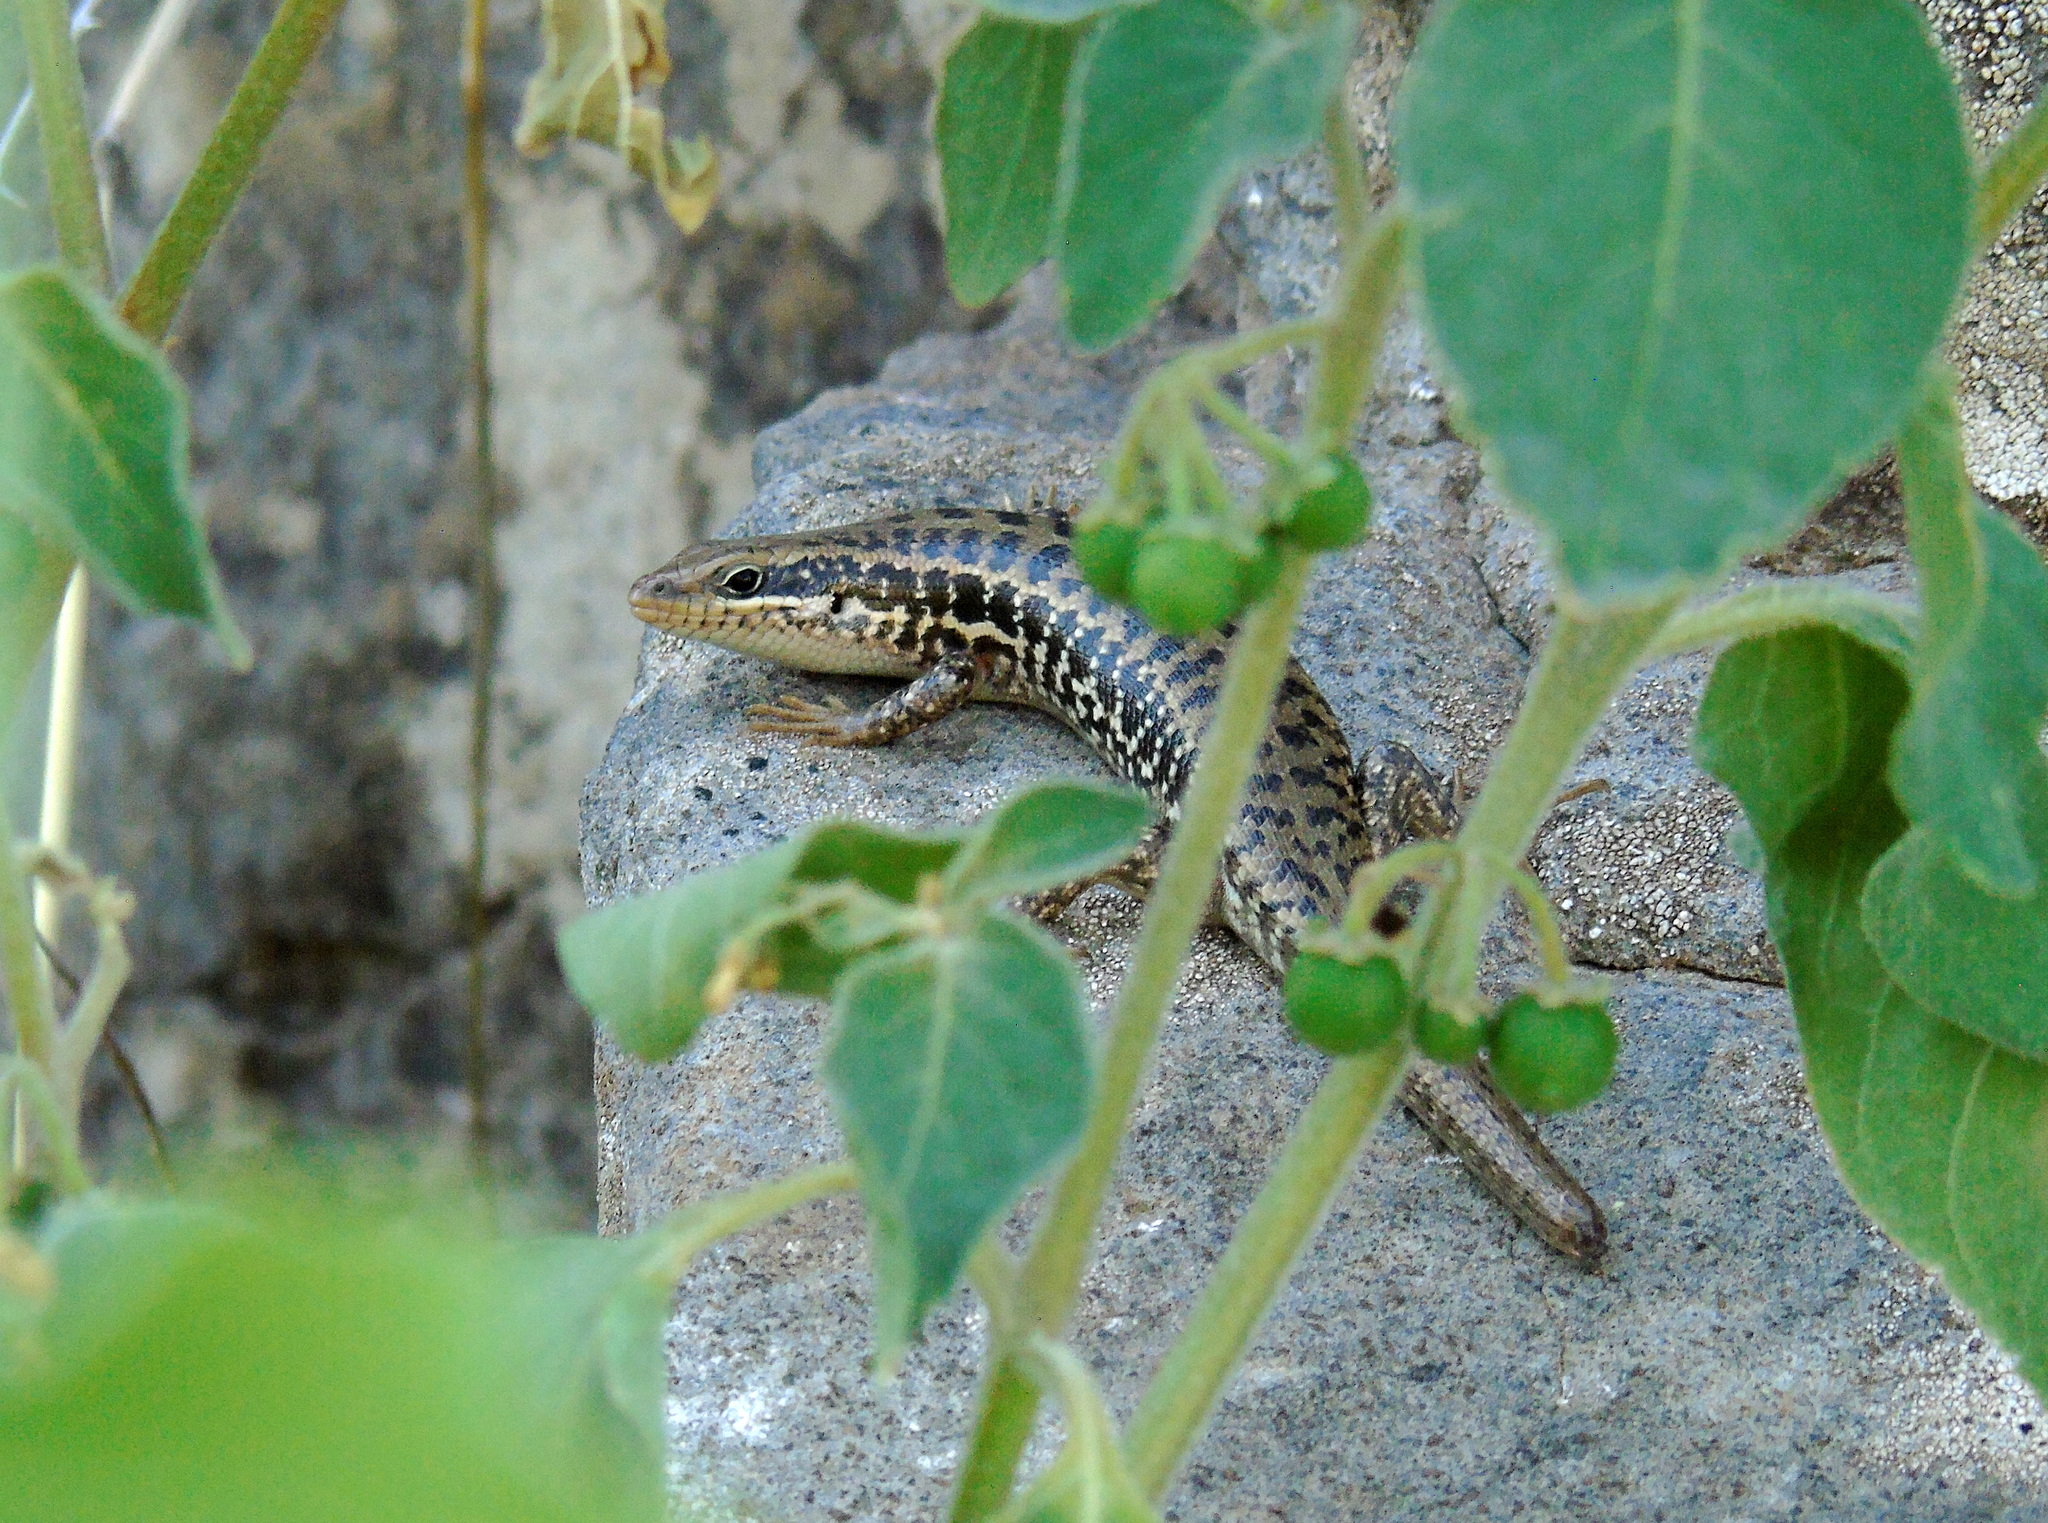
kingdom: Animalia
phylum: Chordata
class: Squamata
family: Scincidae
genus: Heremites
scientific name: Heremites auratus
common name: Golden grass mabuya
